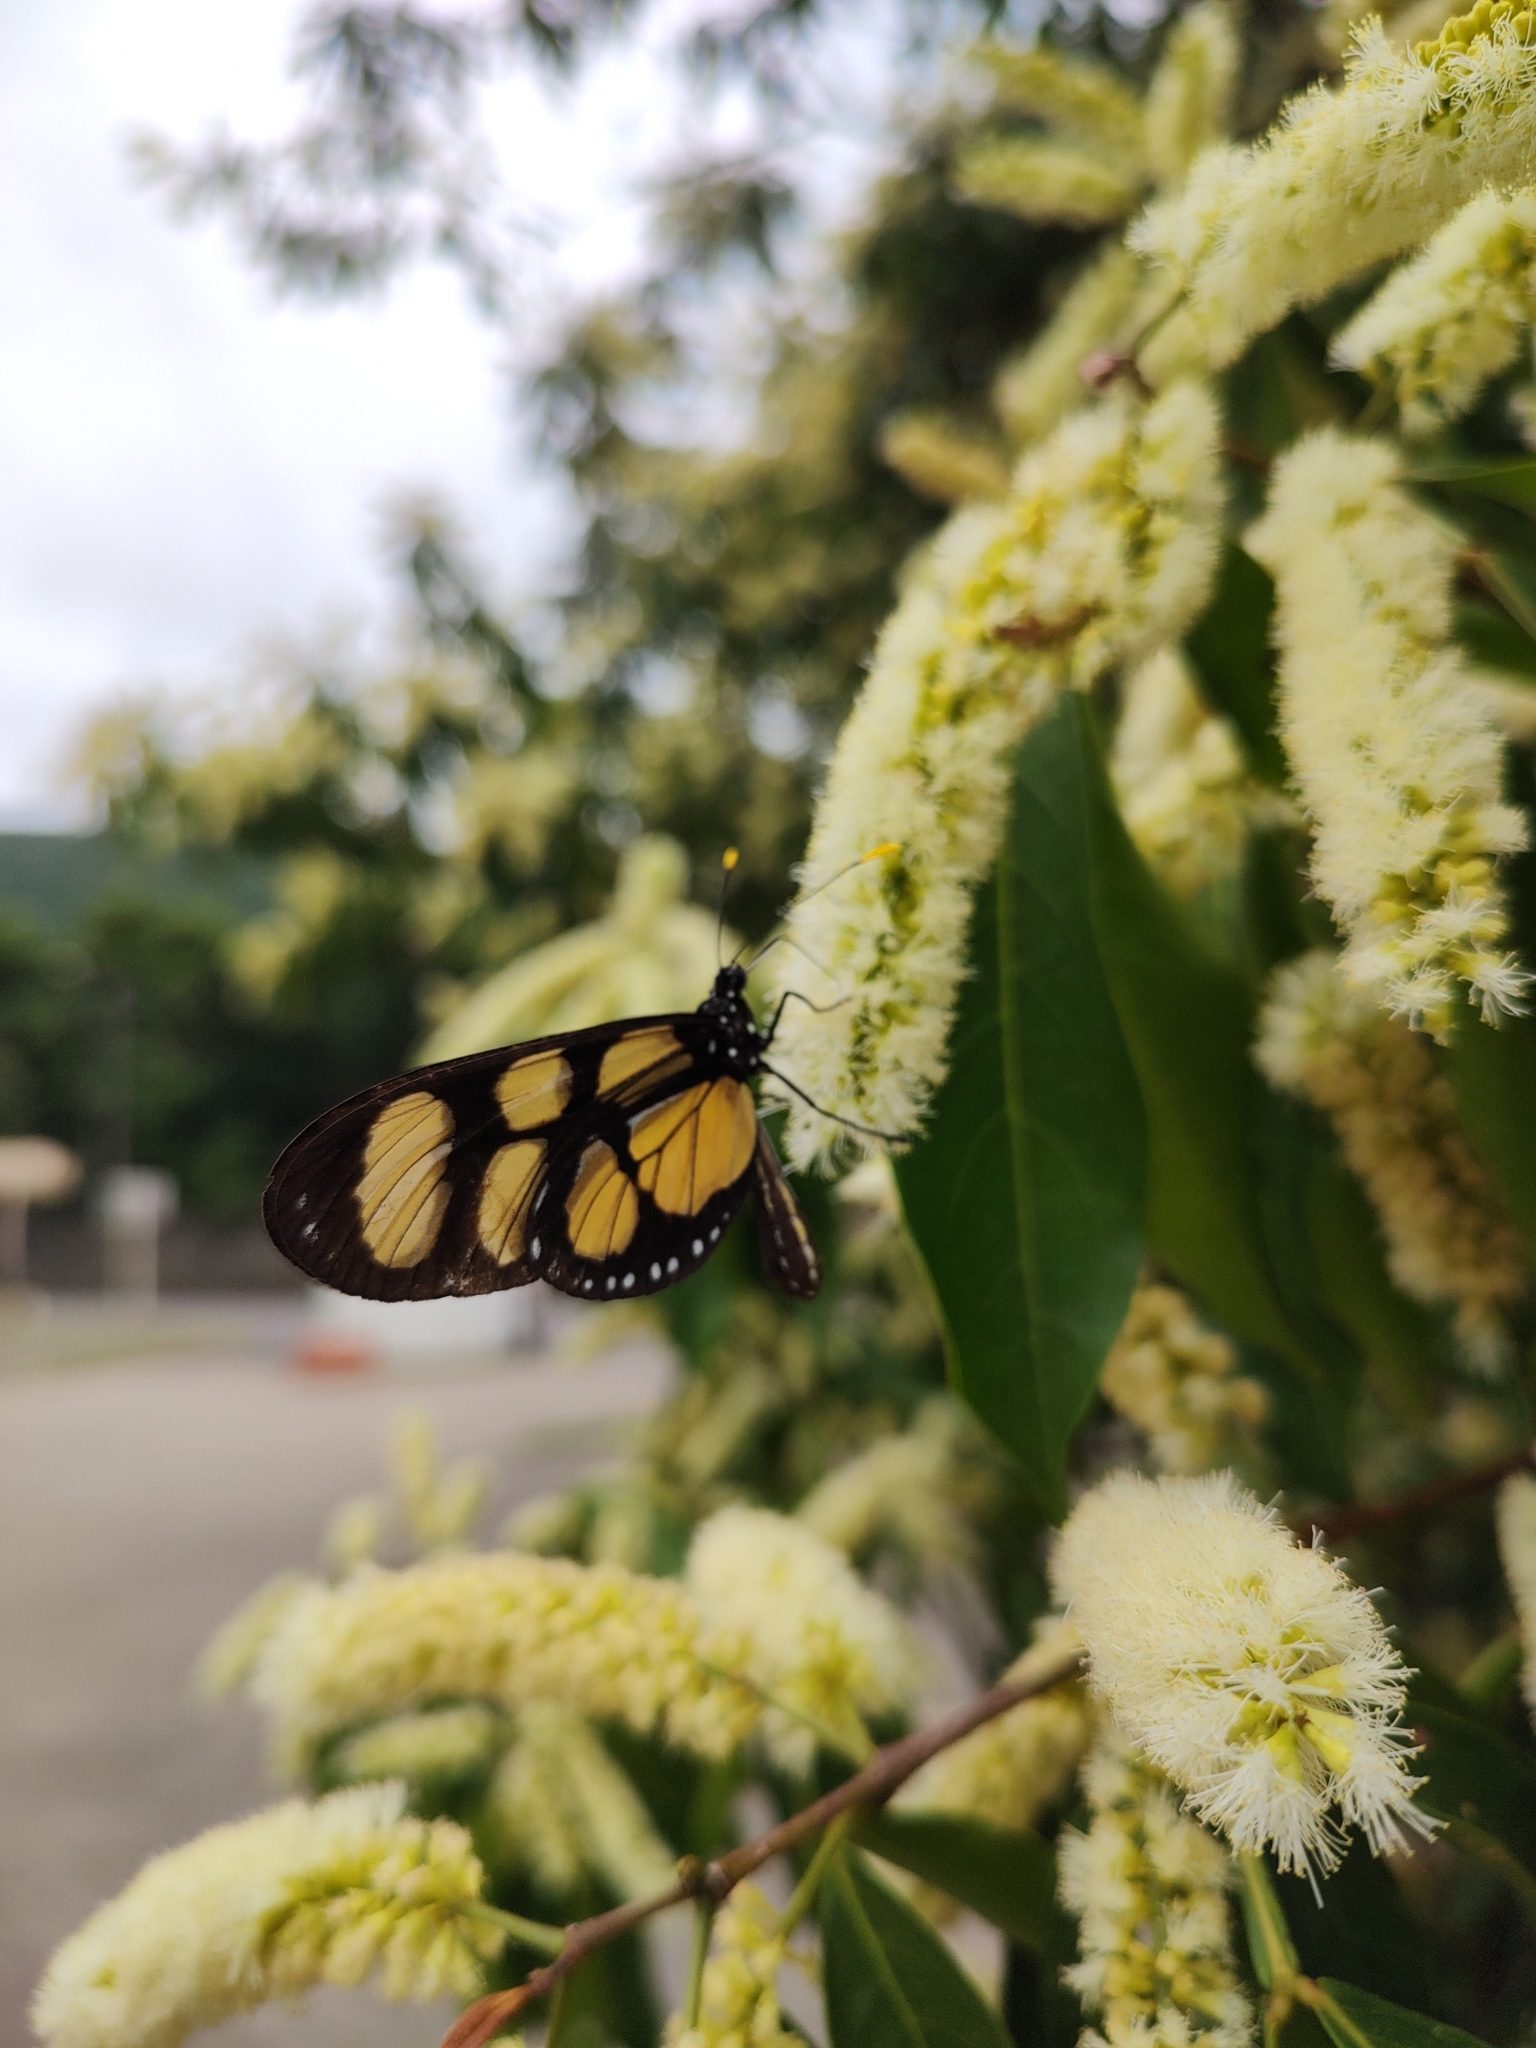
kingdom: Animalia
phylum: Arthropoda
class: Insecta
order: Lepidoptera
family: Nymphalidae
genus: Thyridia
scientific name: Thyridia psidii
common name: Melantho tigerwing
